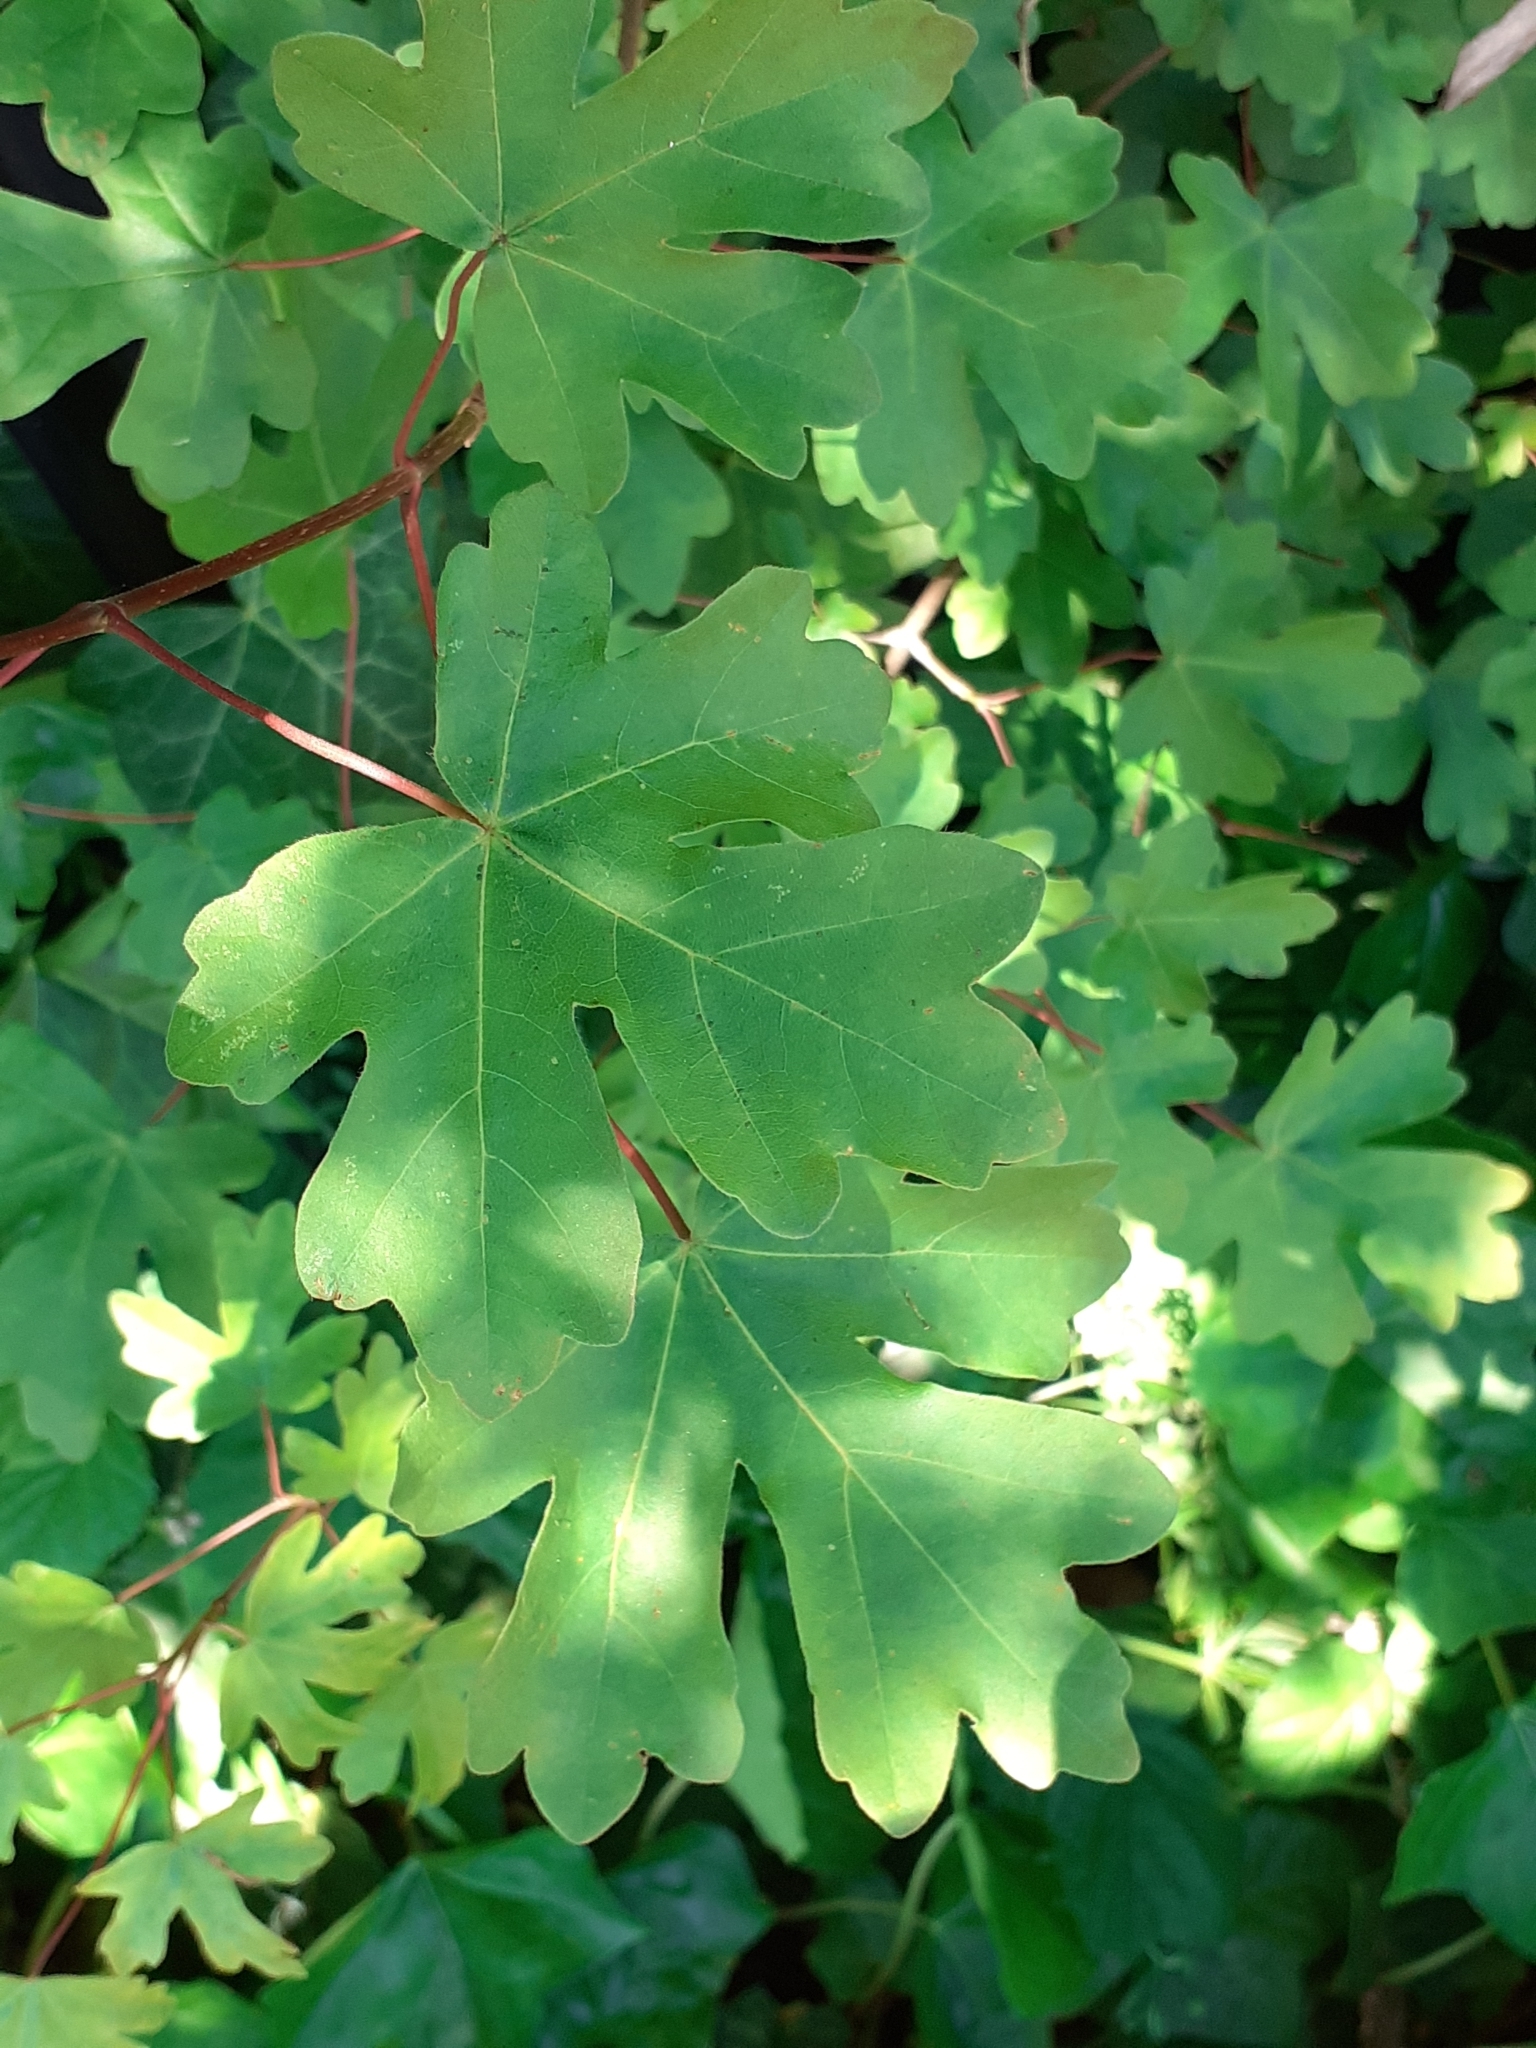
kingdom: Plantae
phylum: Tracheophyta
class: Magnoliopsida
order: Sapindales
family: Sapindaceae
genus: Acer
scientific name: Acer campestre
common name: Field maple
